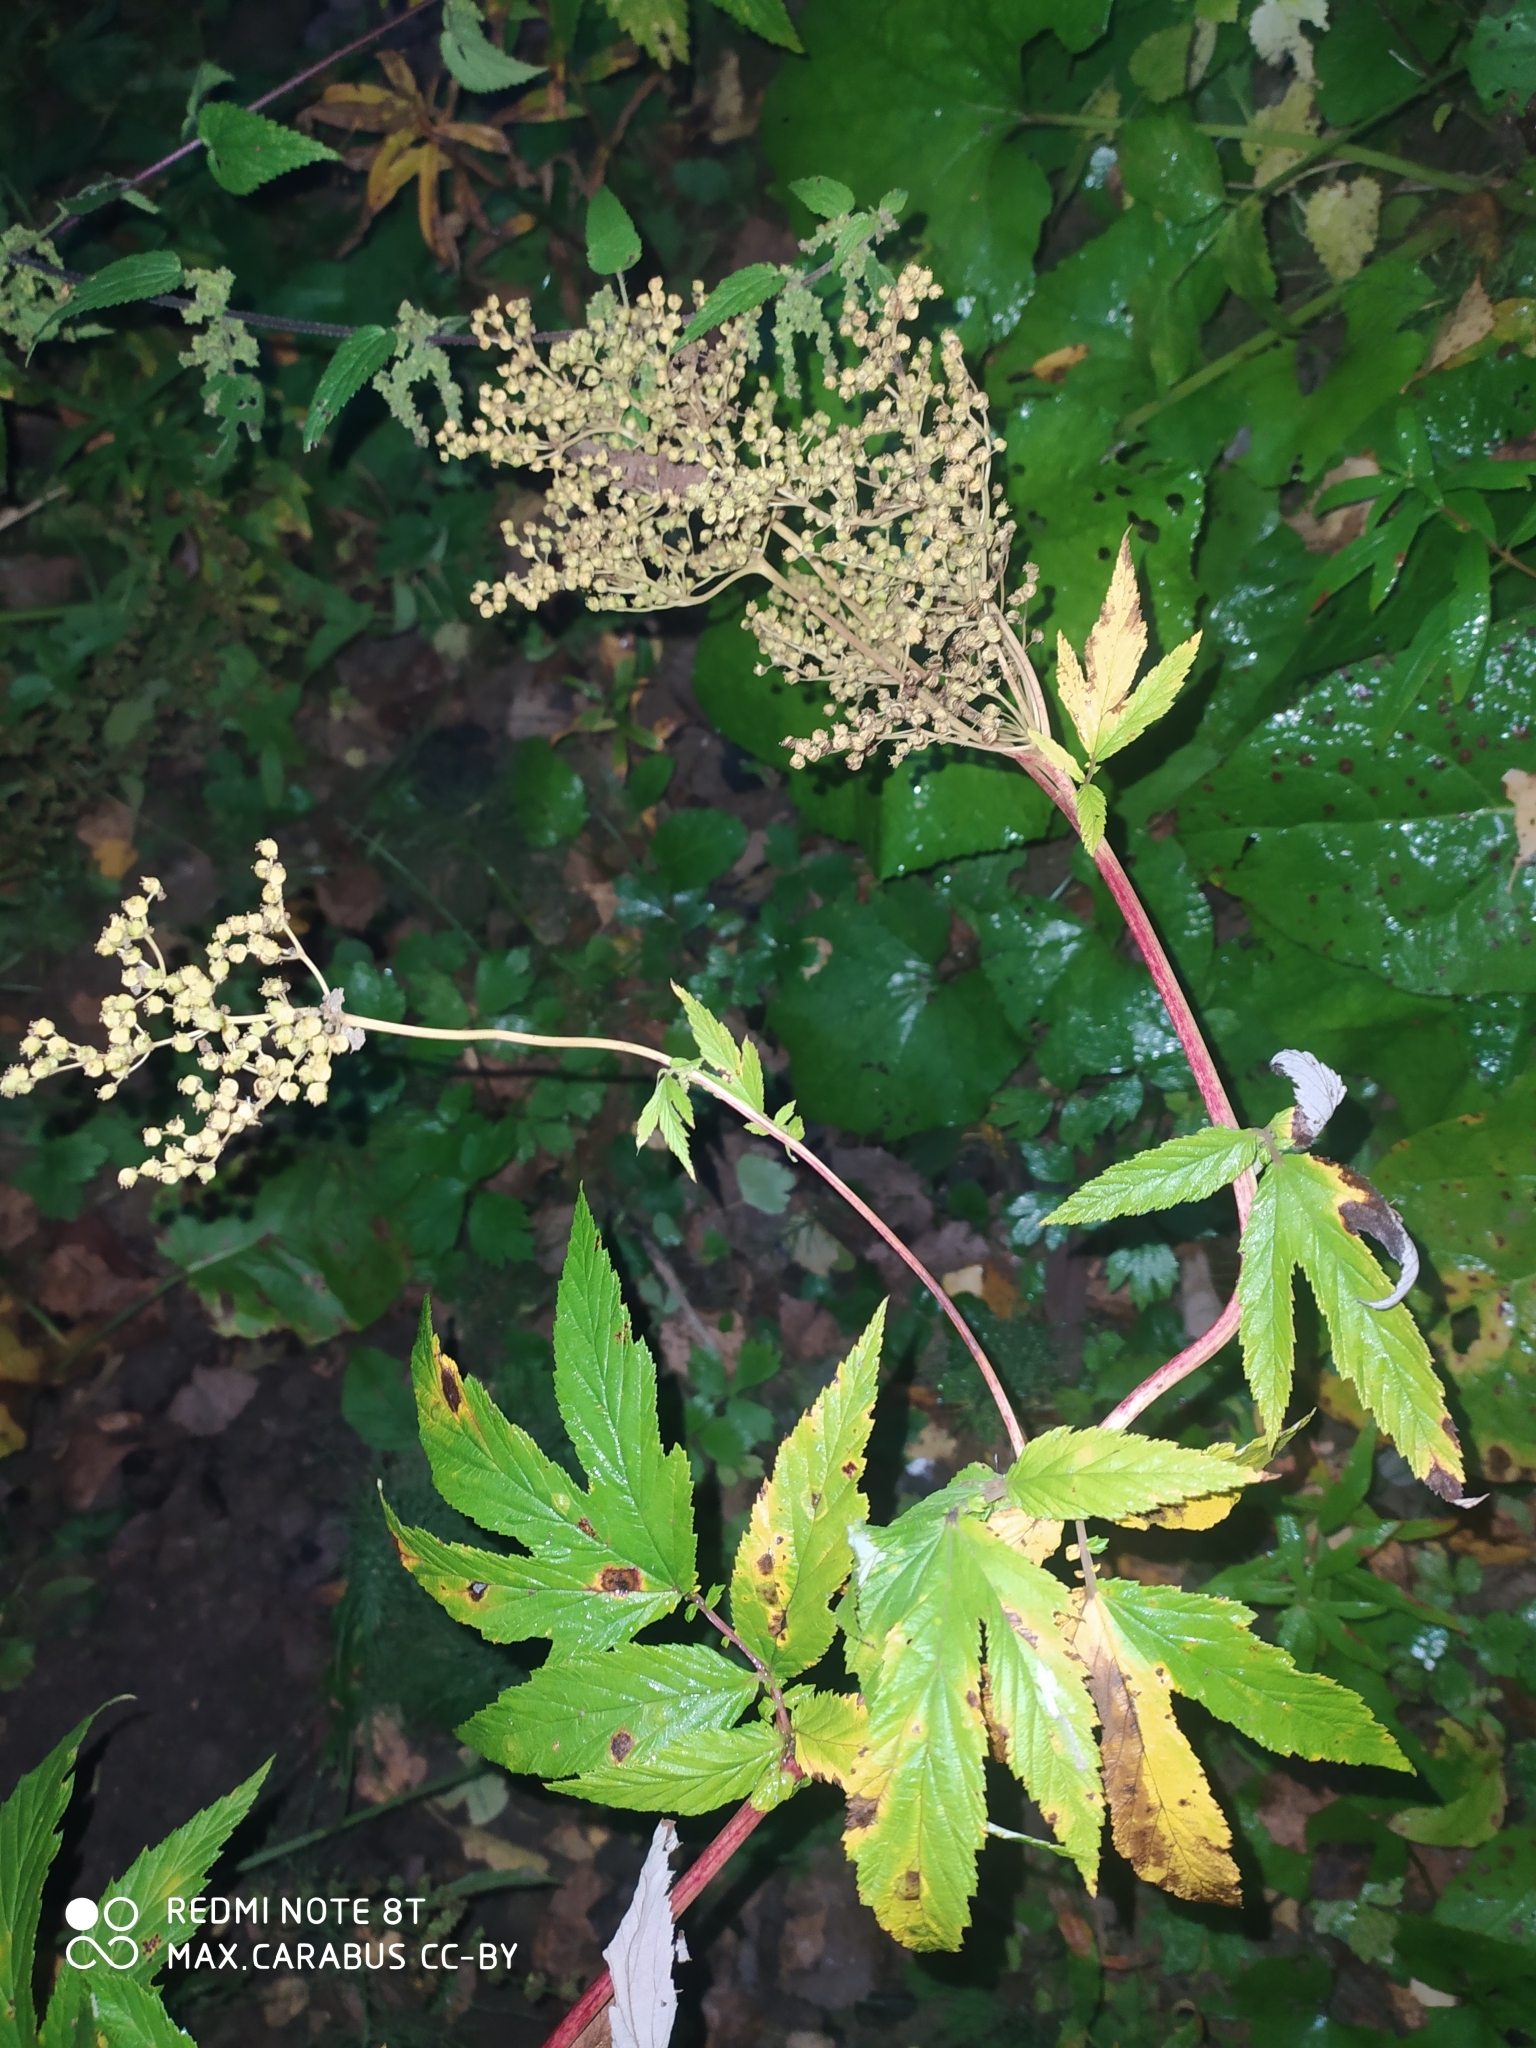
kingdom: Plantae
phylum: Tracheophyta
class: Magnoliopsida
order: Rosales
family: Rosaceae
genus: Filipendula
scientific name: Filipendula ulmaria
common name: Meadowsweet
